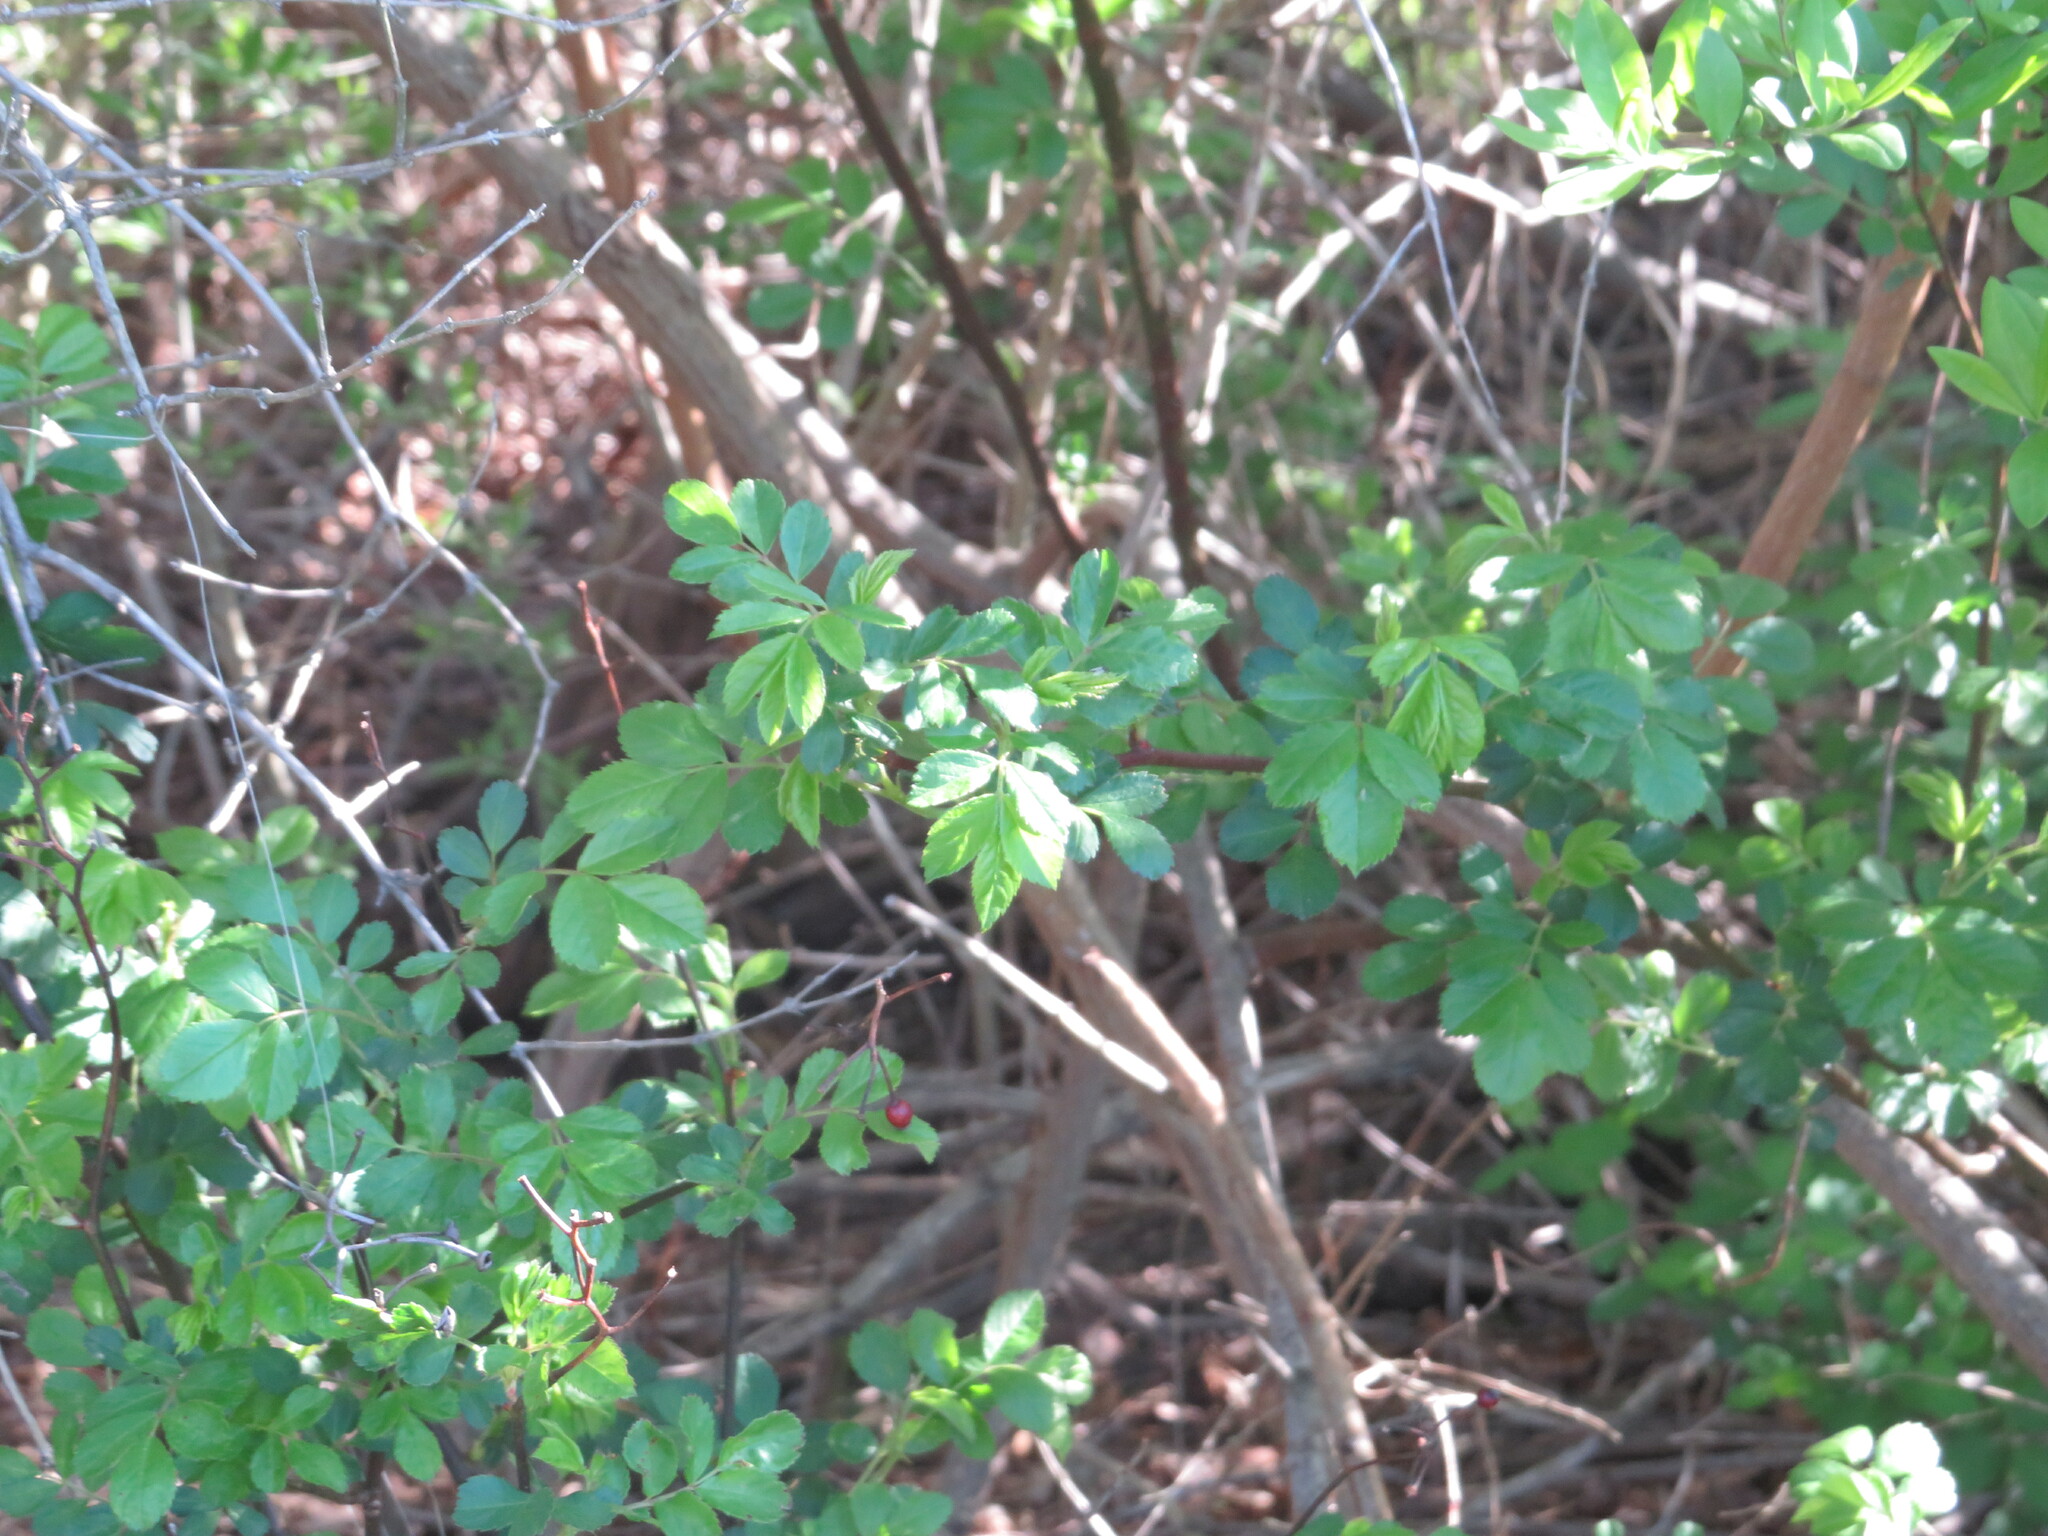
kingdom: Plantae
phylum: Tracheophyta
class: Magnoliopsida
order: Rosales
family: Rosaceae
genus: Rosa
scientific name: Rosa multiflora
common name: Multiflora rose
